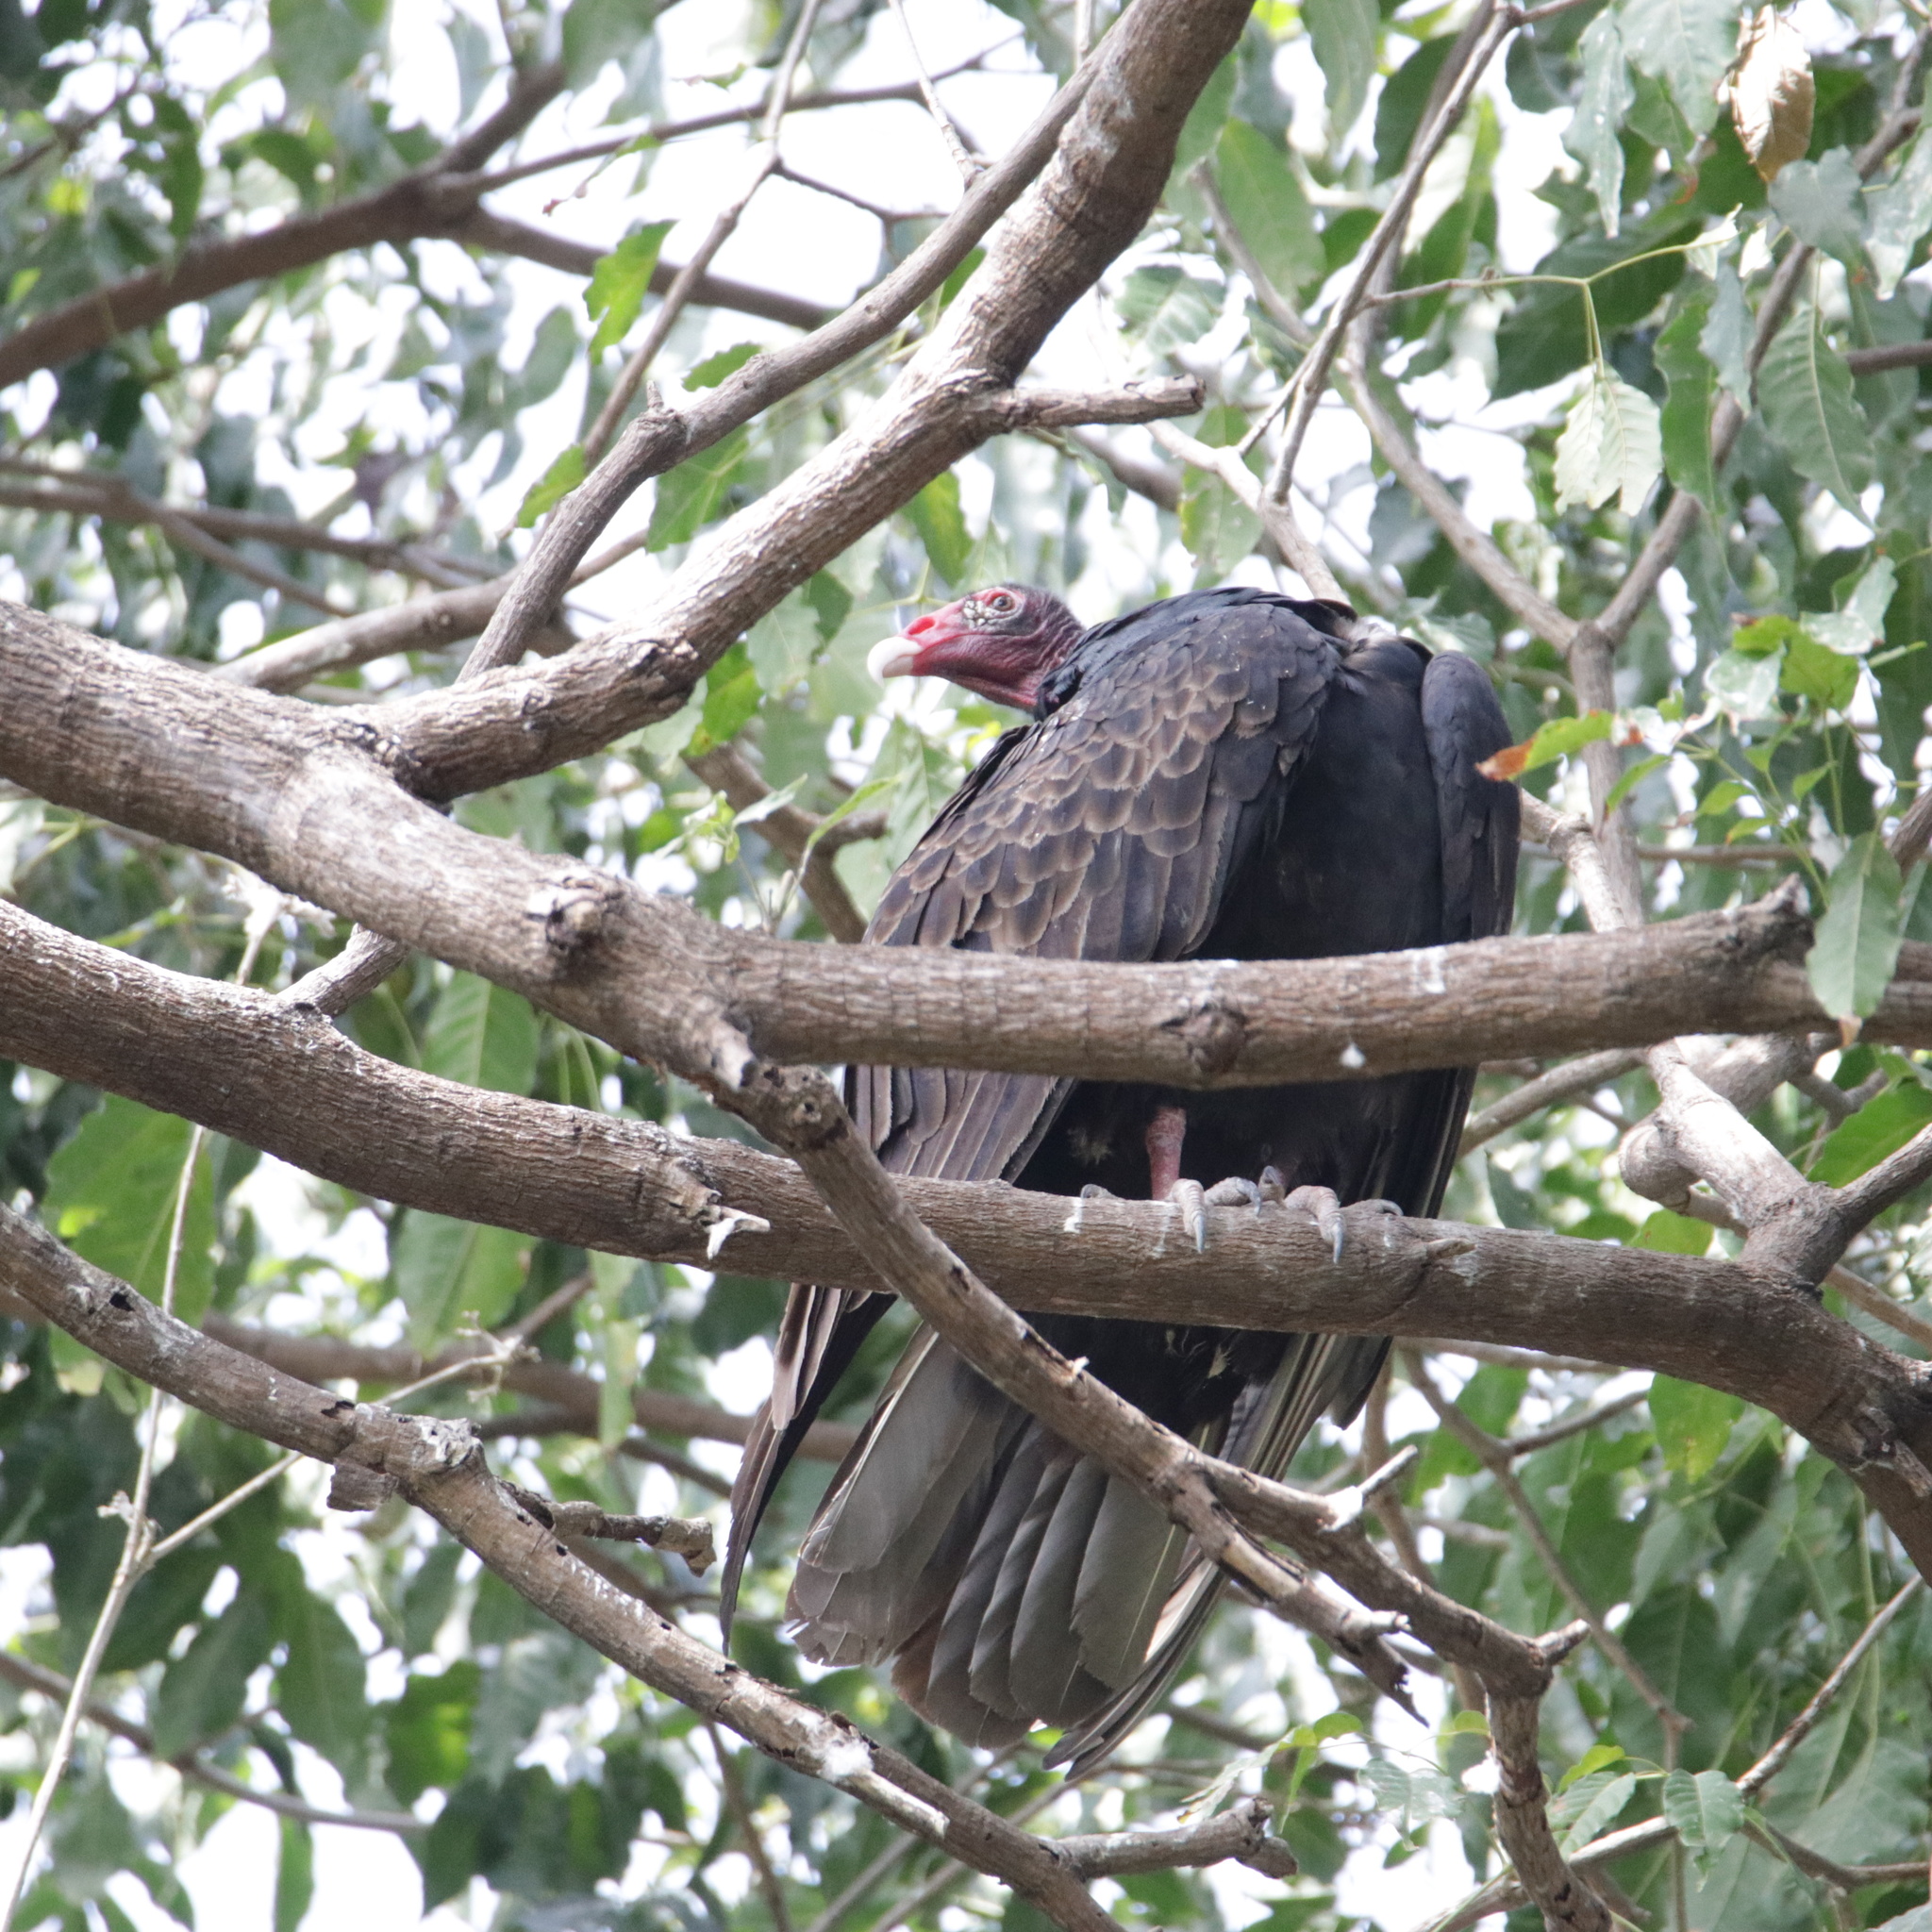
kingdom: Animalia
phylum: Chordata
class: Aves
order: Accipitriformes
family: Cathartidae
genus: Cathartes
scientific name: Cathartes aura
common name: Turkey vulture
